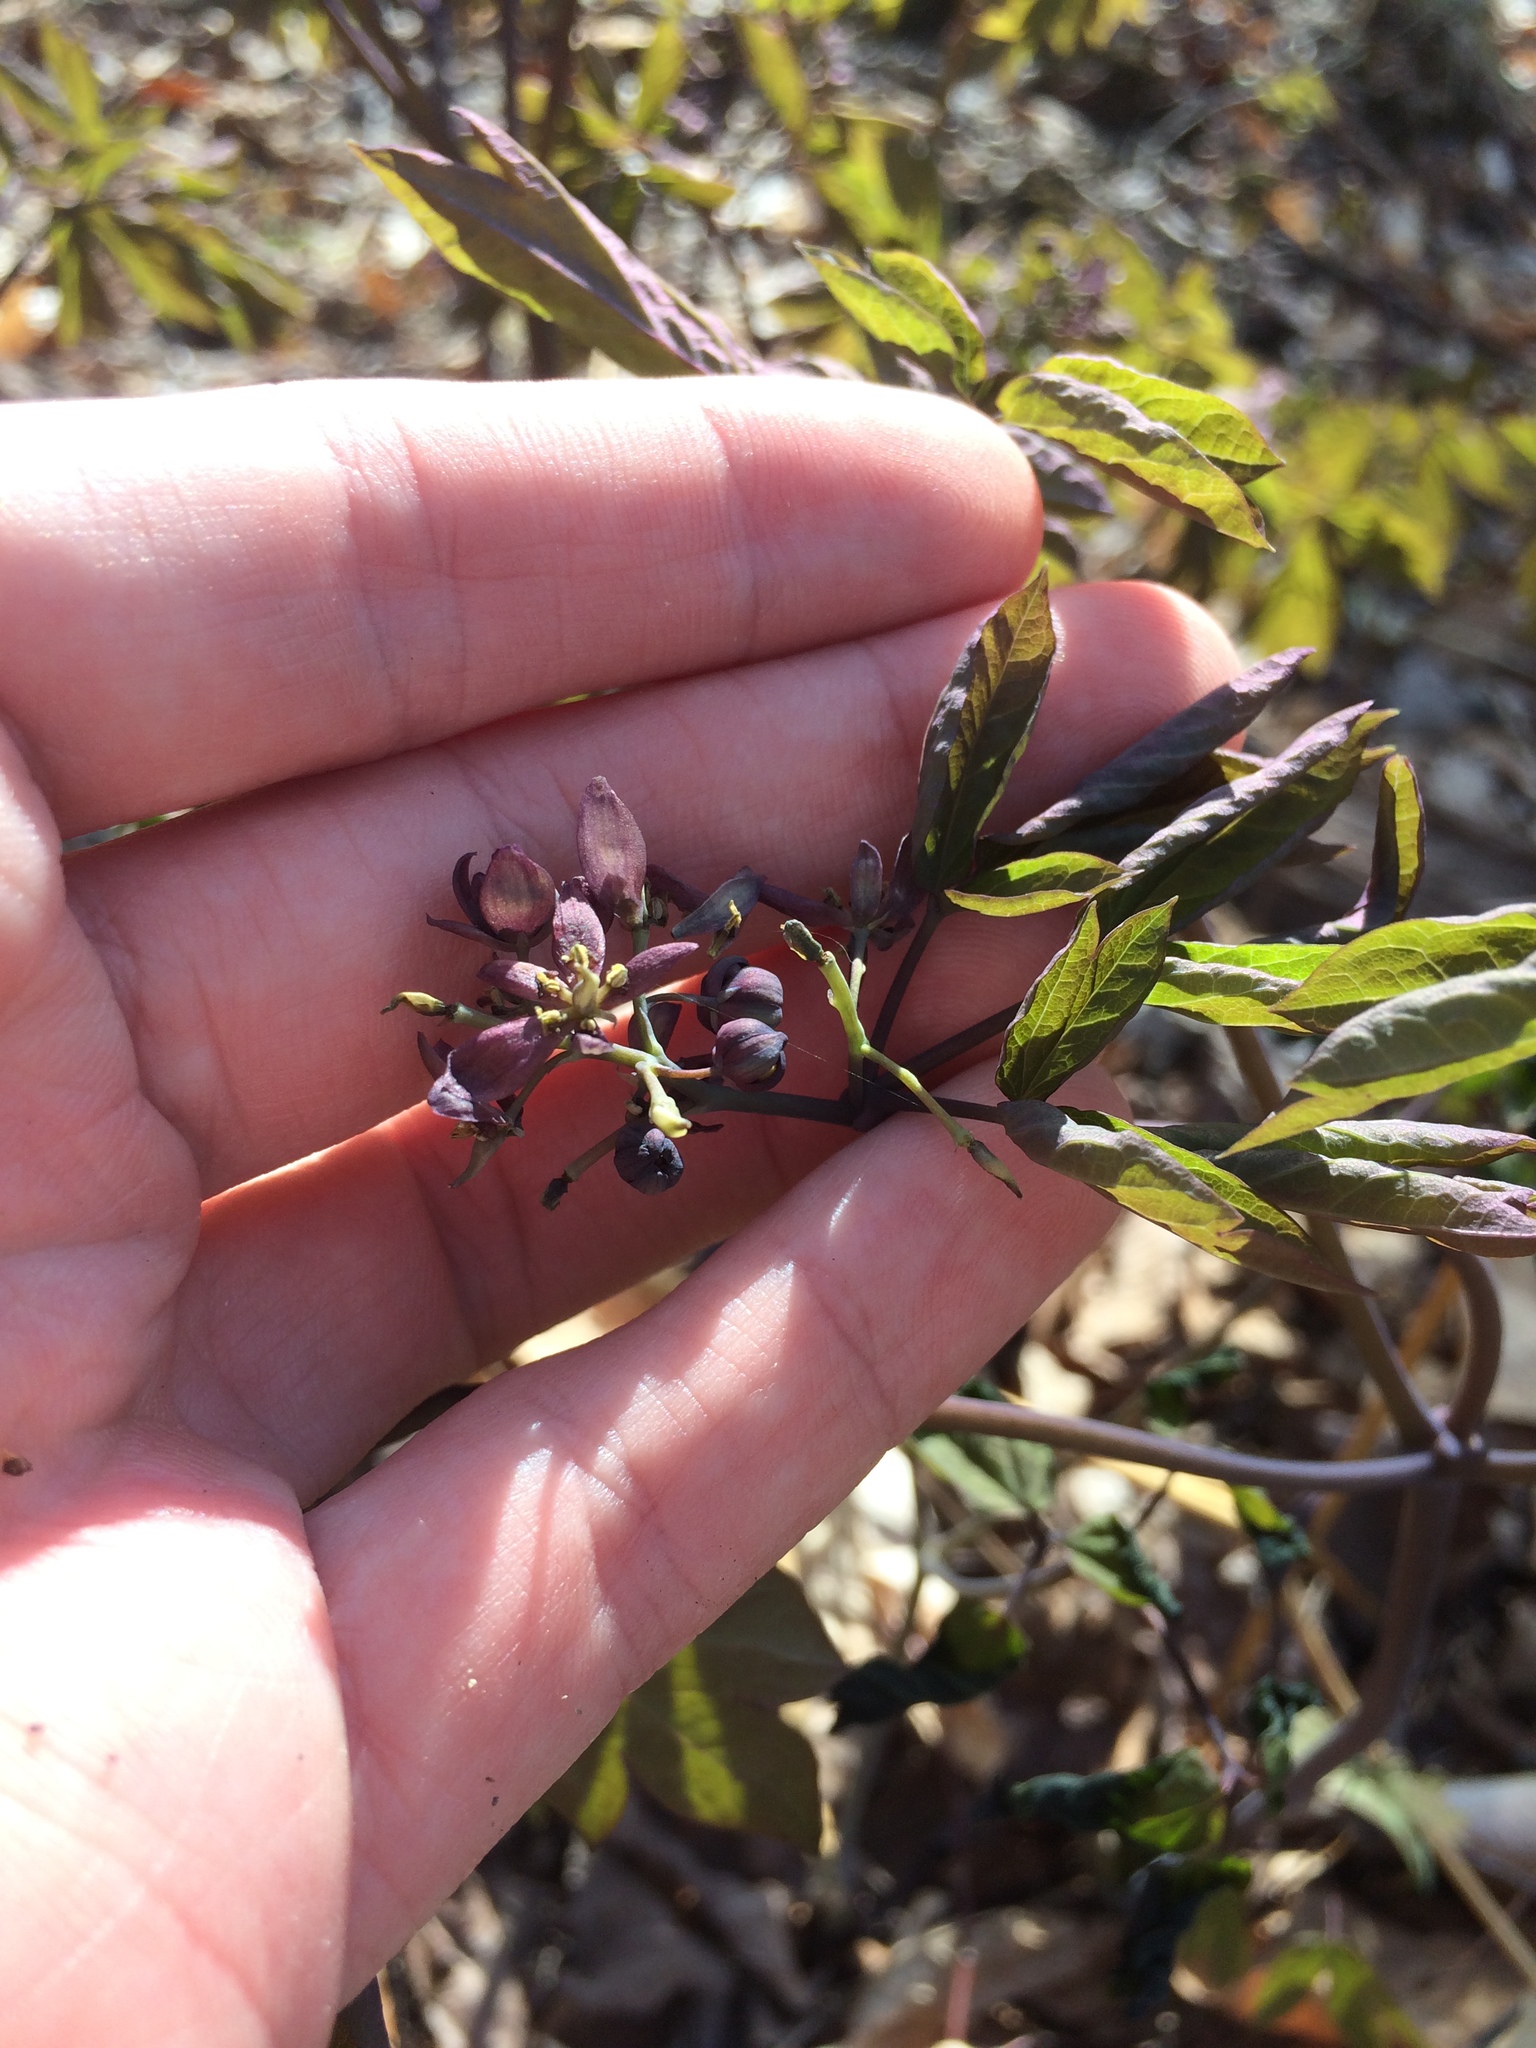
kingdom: Plantae
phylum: Tracheophyta
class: Magnoliopsida
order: Ranunculales
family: Berberidaceae
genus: Caulophyllum
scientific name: Caulophyllum giganteum
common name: Blue cohosh
